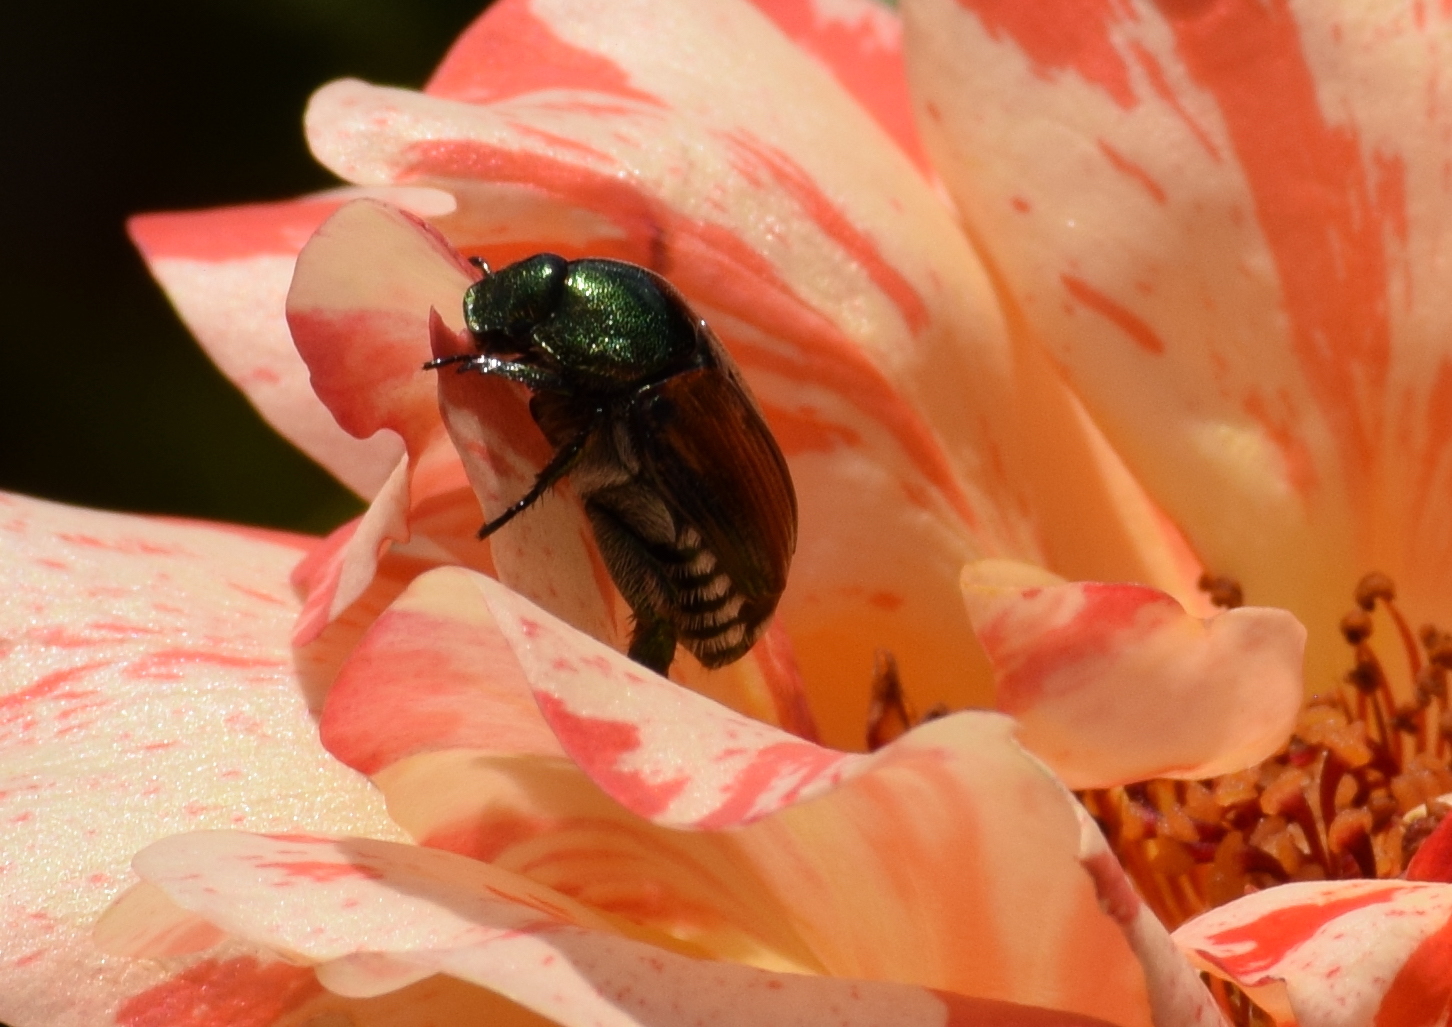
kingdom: Animalia
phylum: Arthropoda
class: Insecta
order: Coleoptera
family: Scarabaeidae
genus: Popillia
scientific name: Popillia japonica
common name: Japanese beetle
